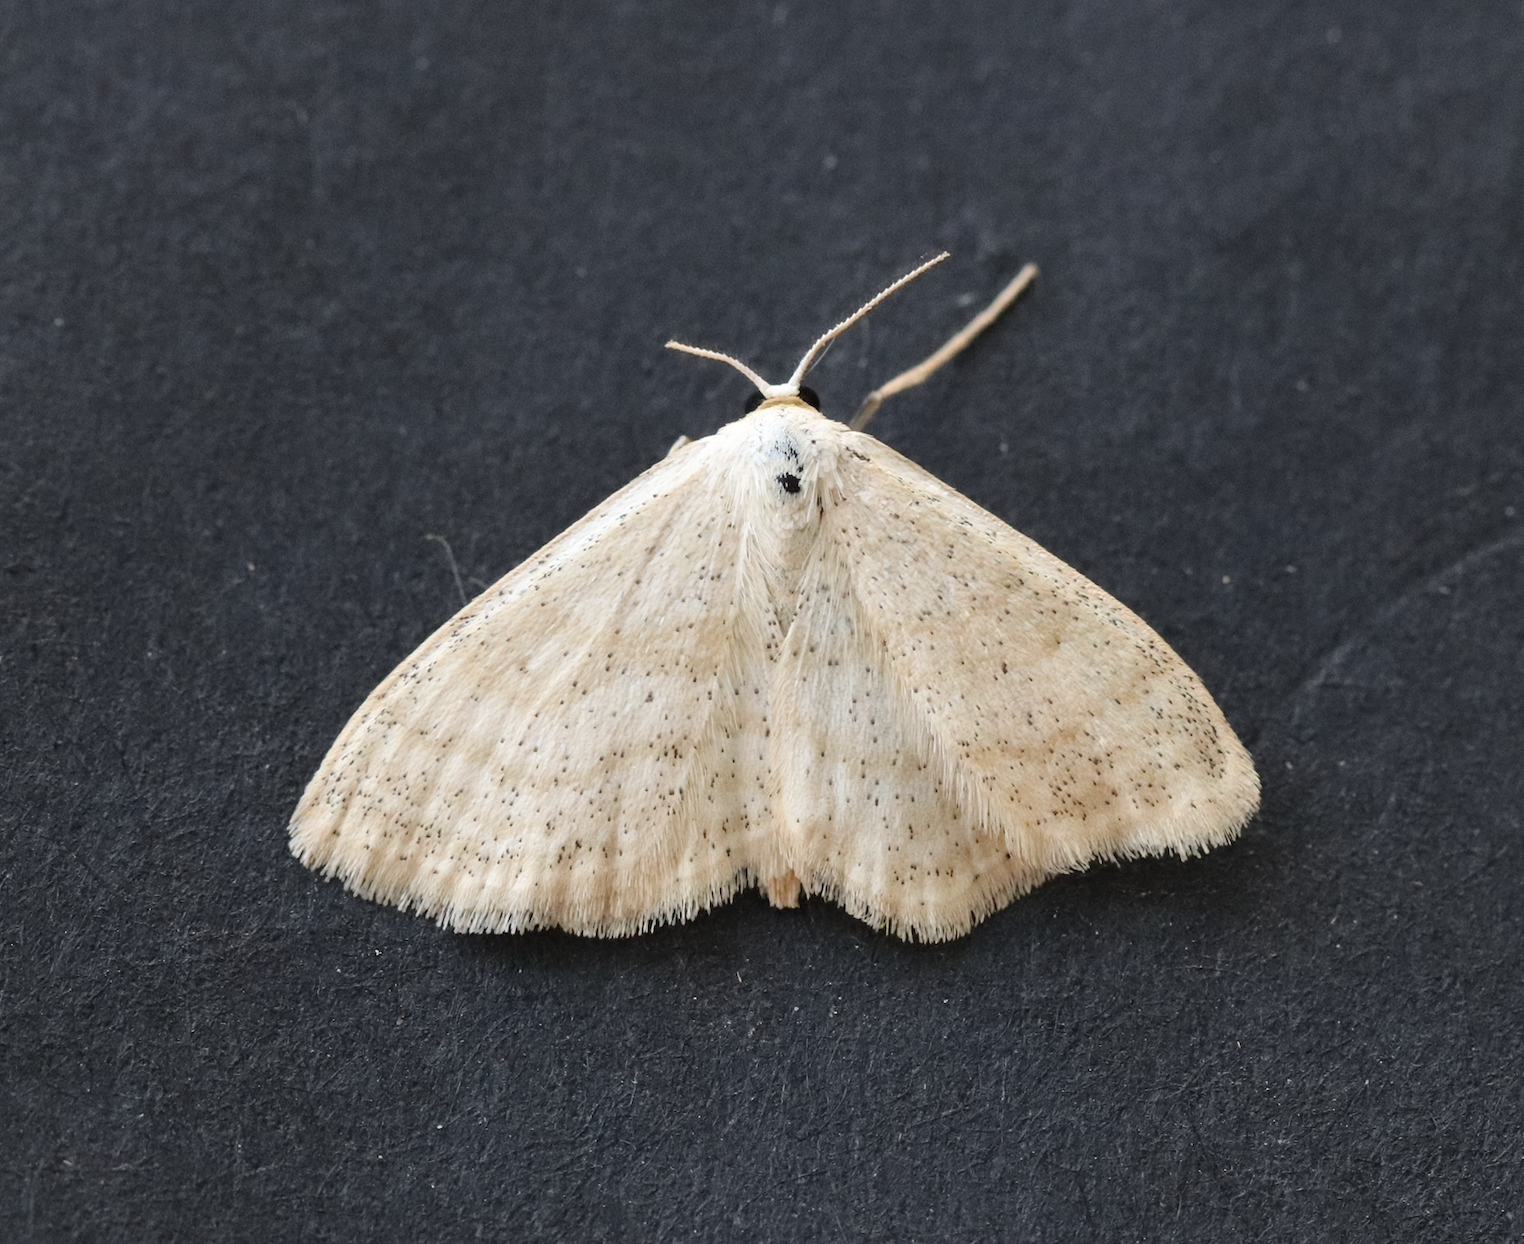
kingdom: Animalia
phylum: Arthropoda
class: Insecta
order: Lepidoptera
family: Geometridae
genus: Idaea
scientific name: Idaea sylvestraria
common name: Dotted borded wave
